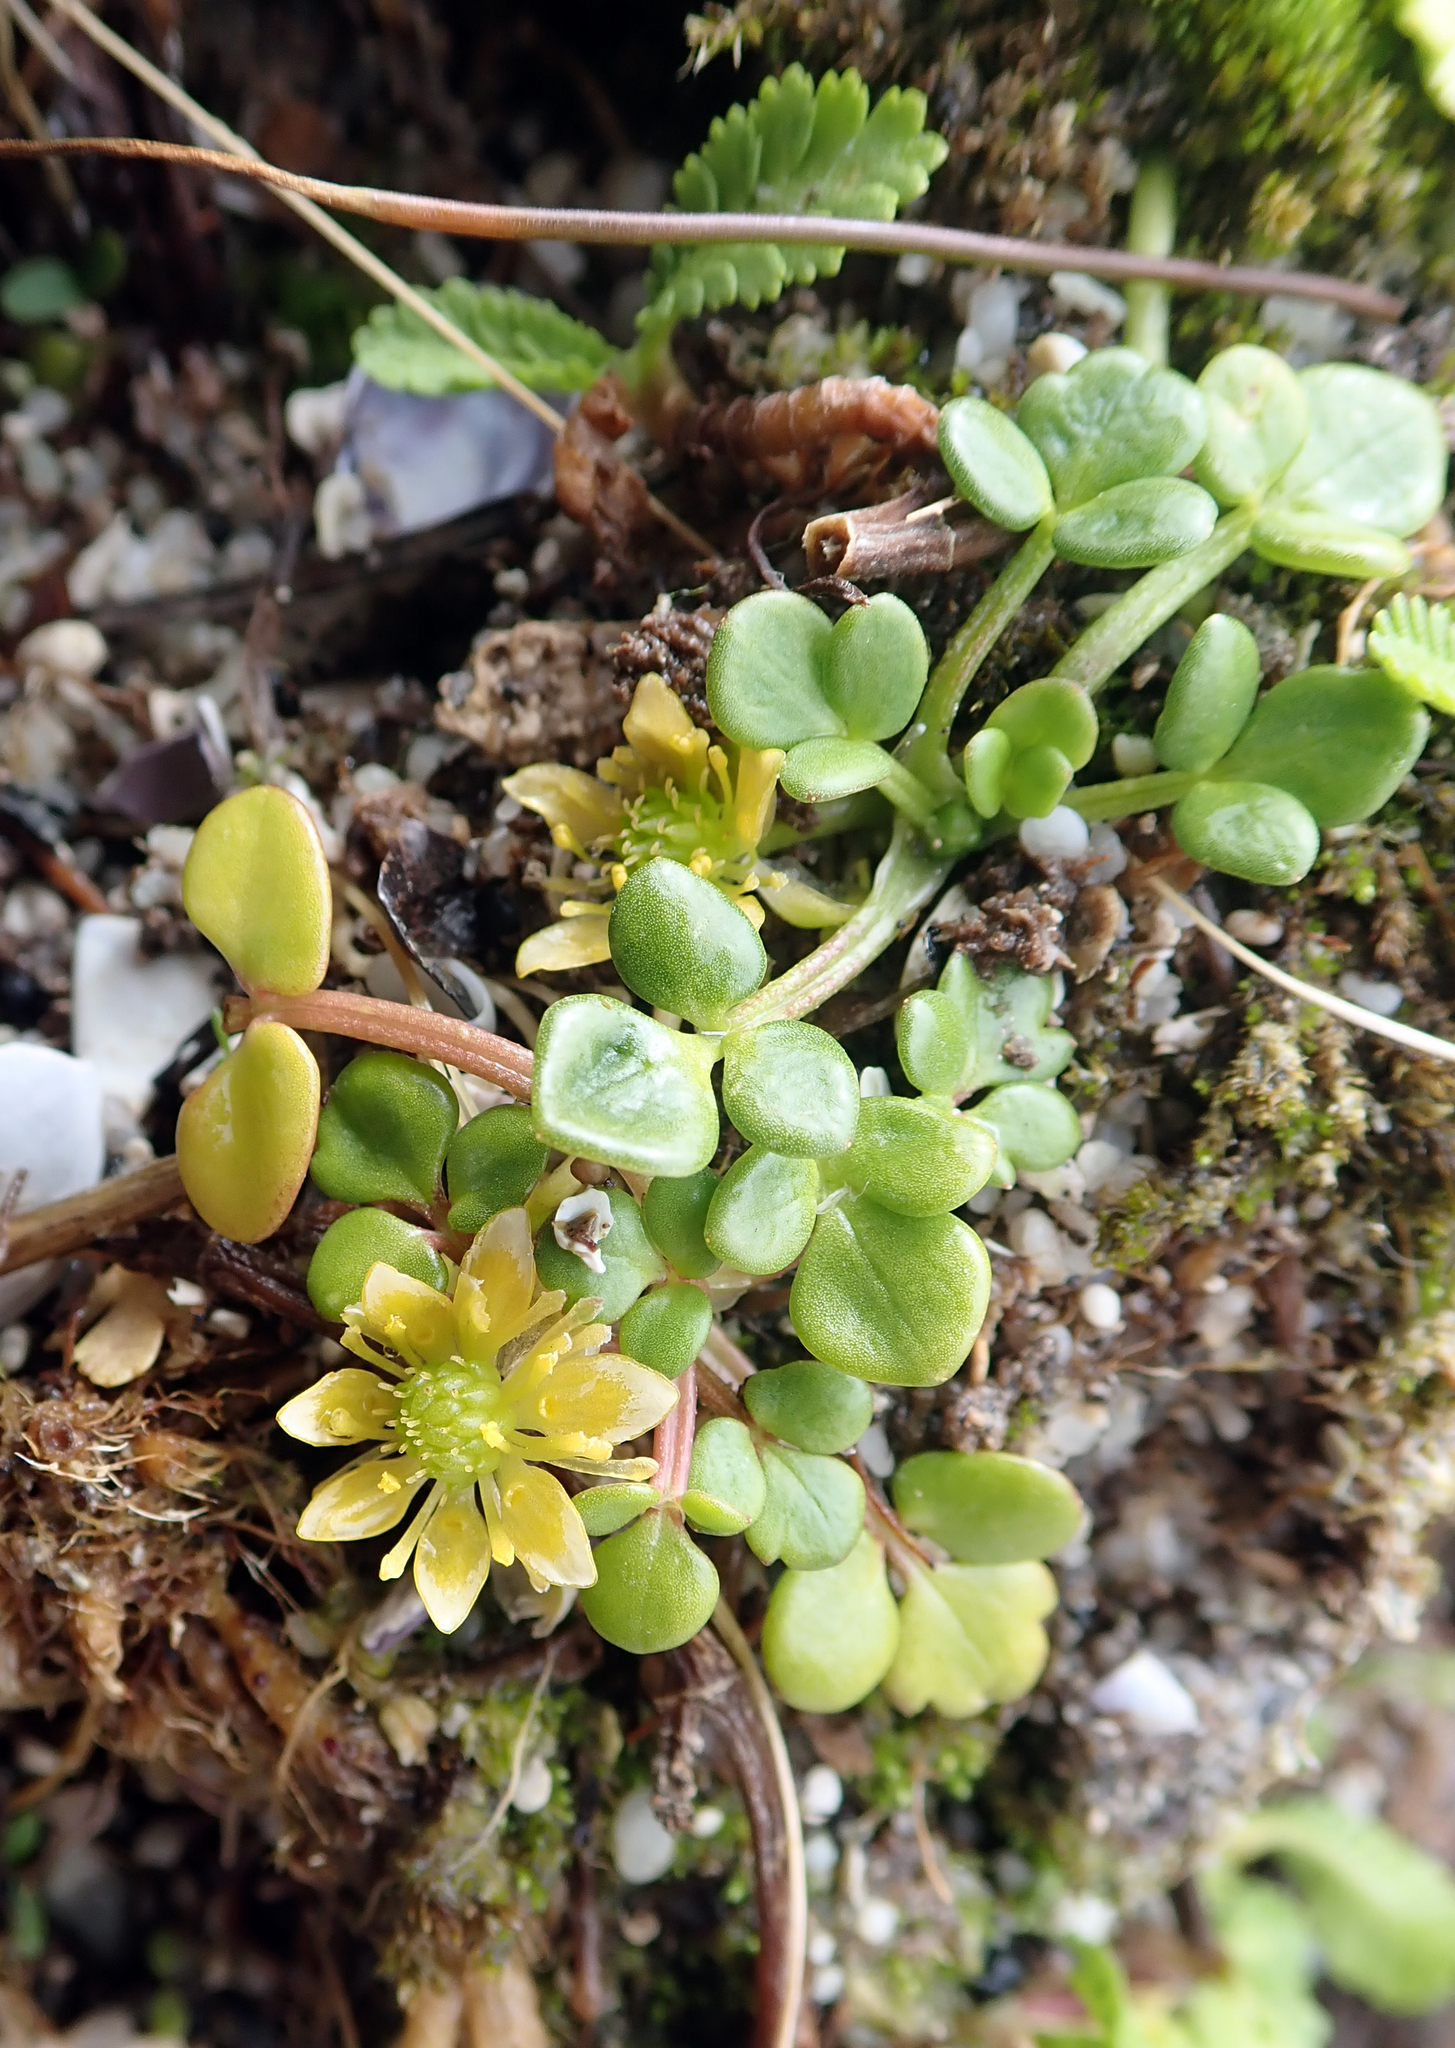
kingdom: Plantae
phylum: Tracheophyta
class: Magnoliopsida
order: Ranunculales
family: Ranunculaceae
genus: Ranunculus
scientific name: Ranunculus acaulis
